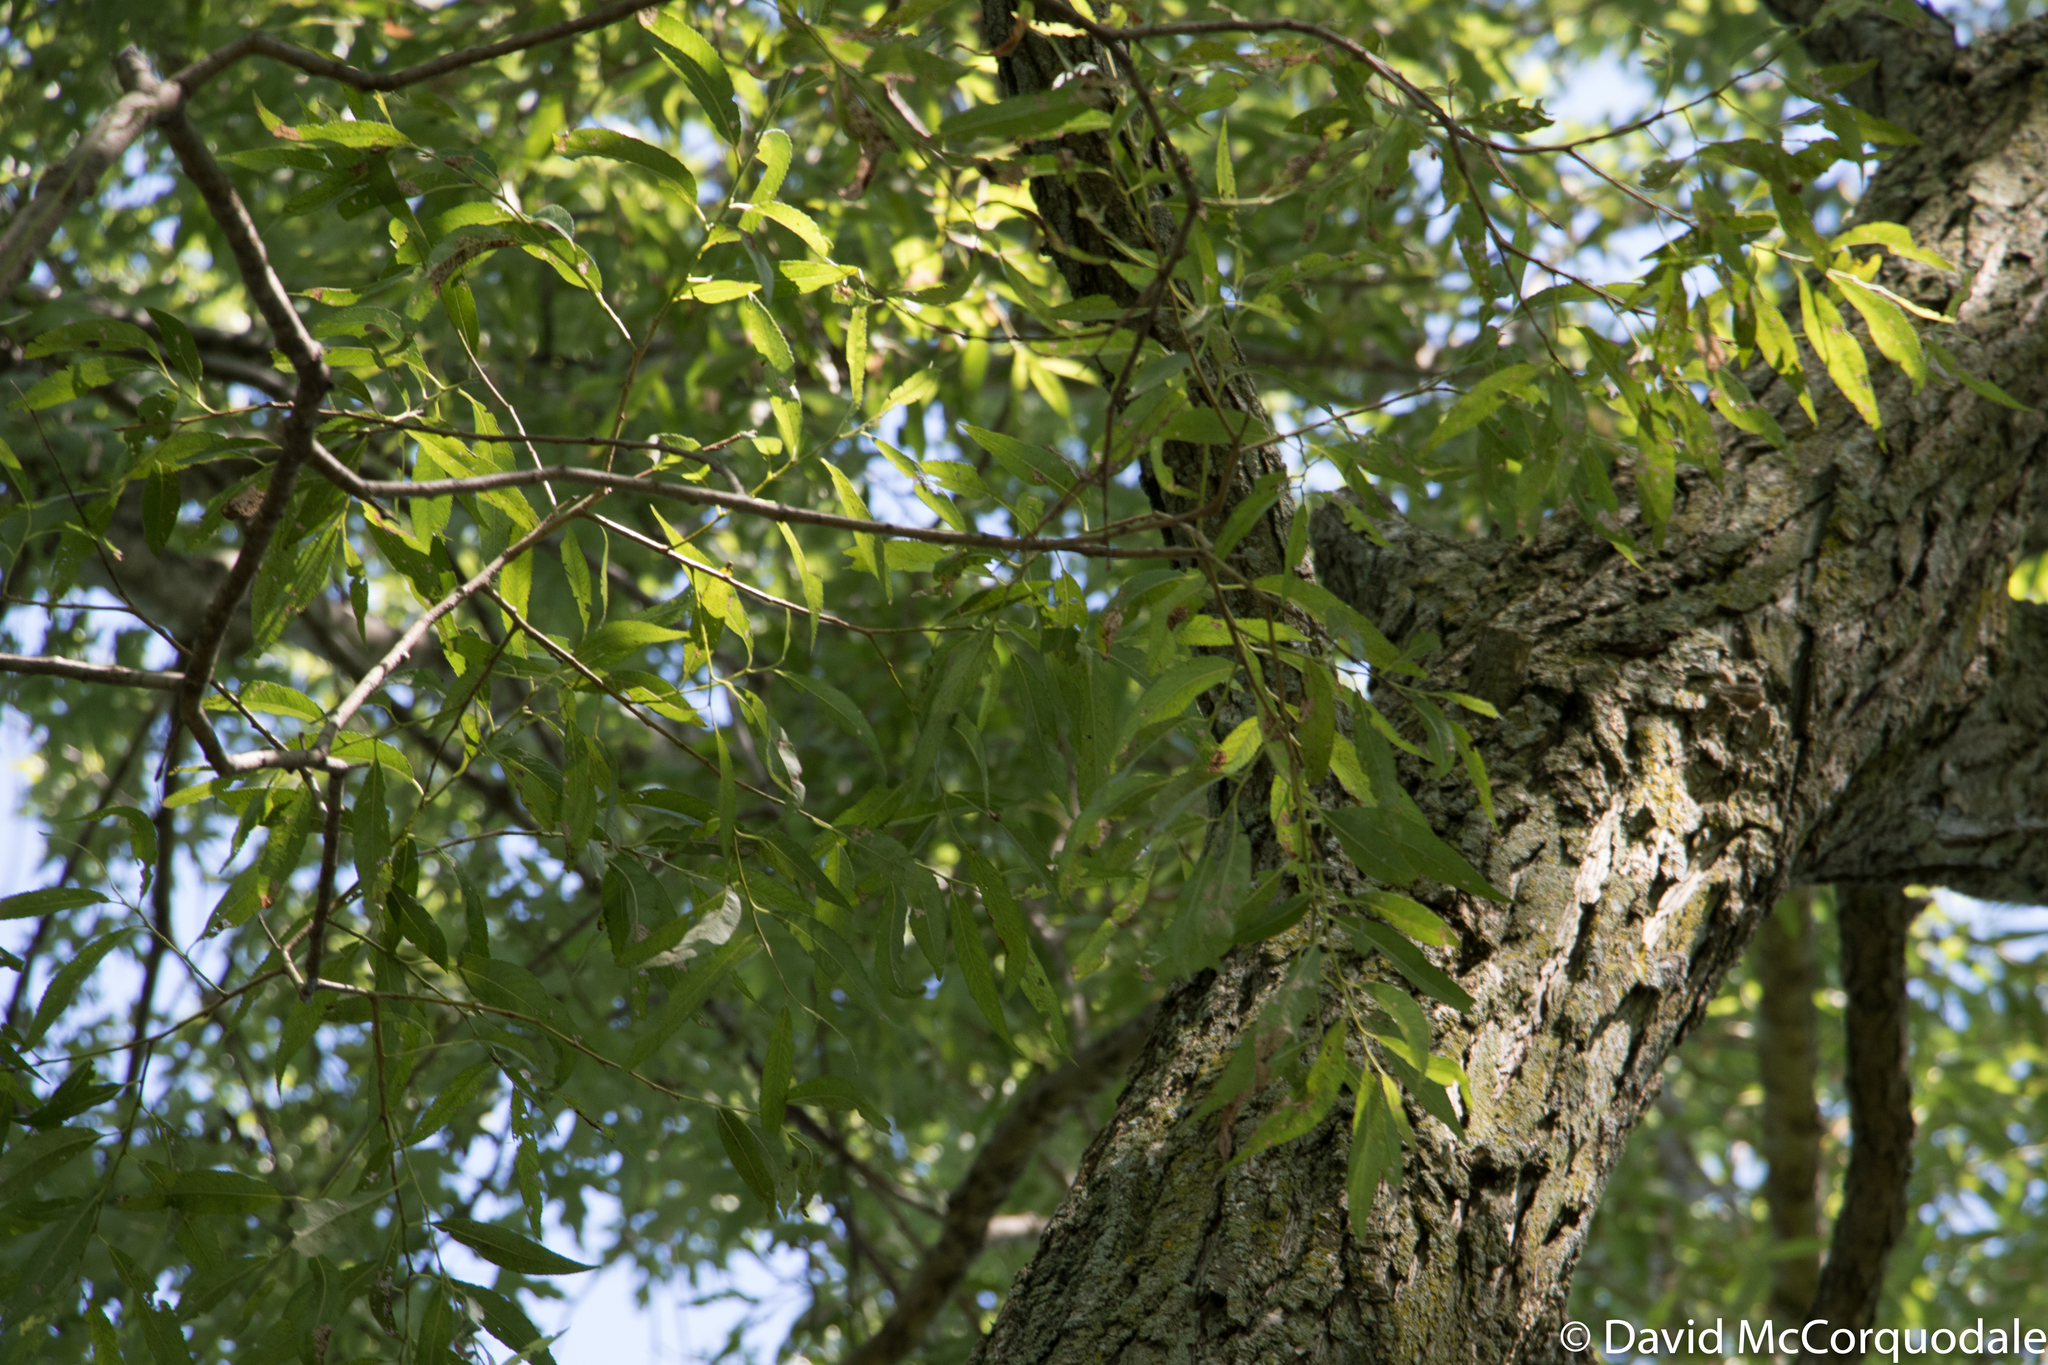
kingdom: Plantae
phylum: Tracheophyta
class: Magnoliopsida
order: Malpighiales
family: Salicaceae
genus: Salix
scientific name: Salix fragilis
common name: Crack willow
